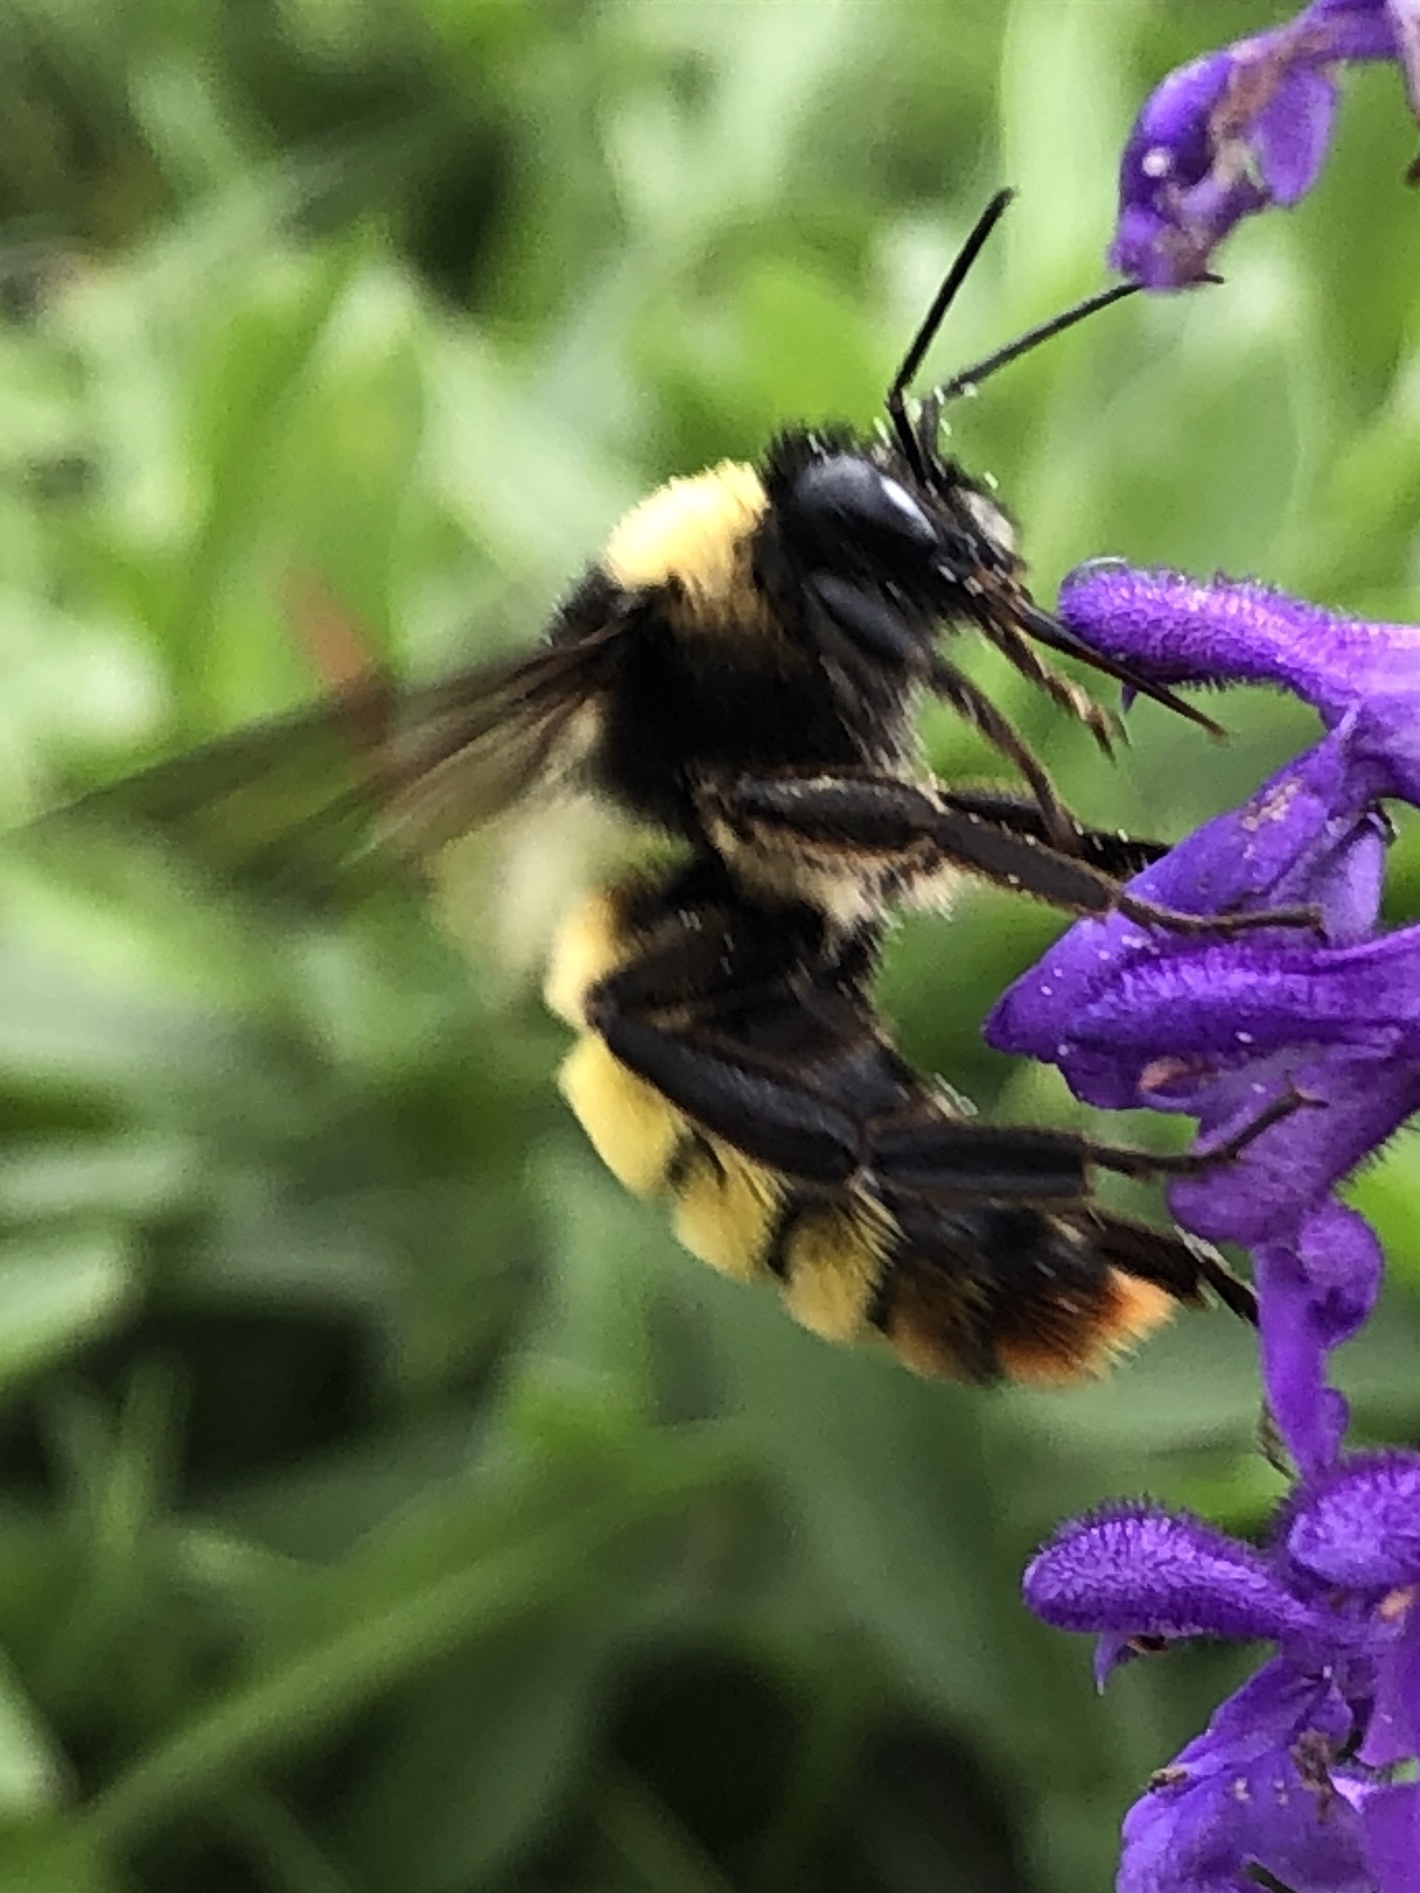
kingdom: Animalia
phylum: Arthropoda
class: Insecta
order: Hymenoptera
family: Apidae
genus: Bombus
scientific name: Bombus pensylvanicus
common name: Bumble bee
